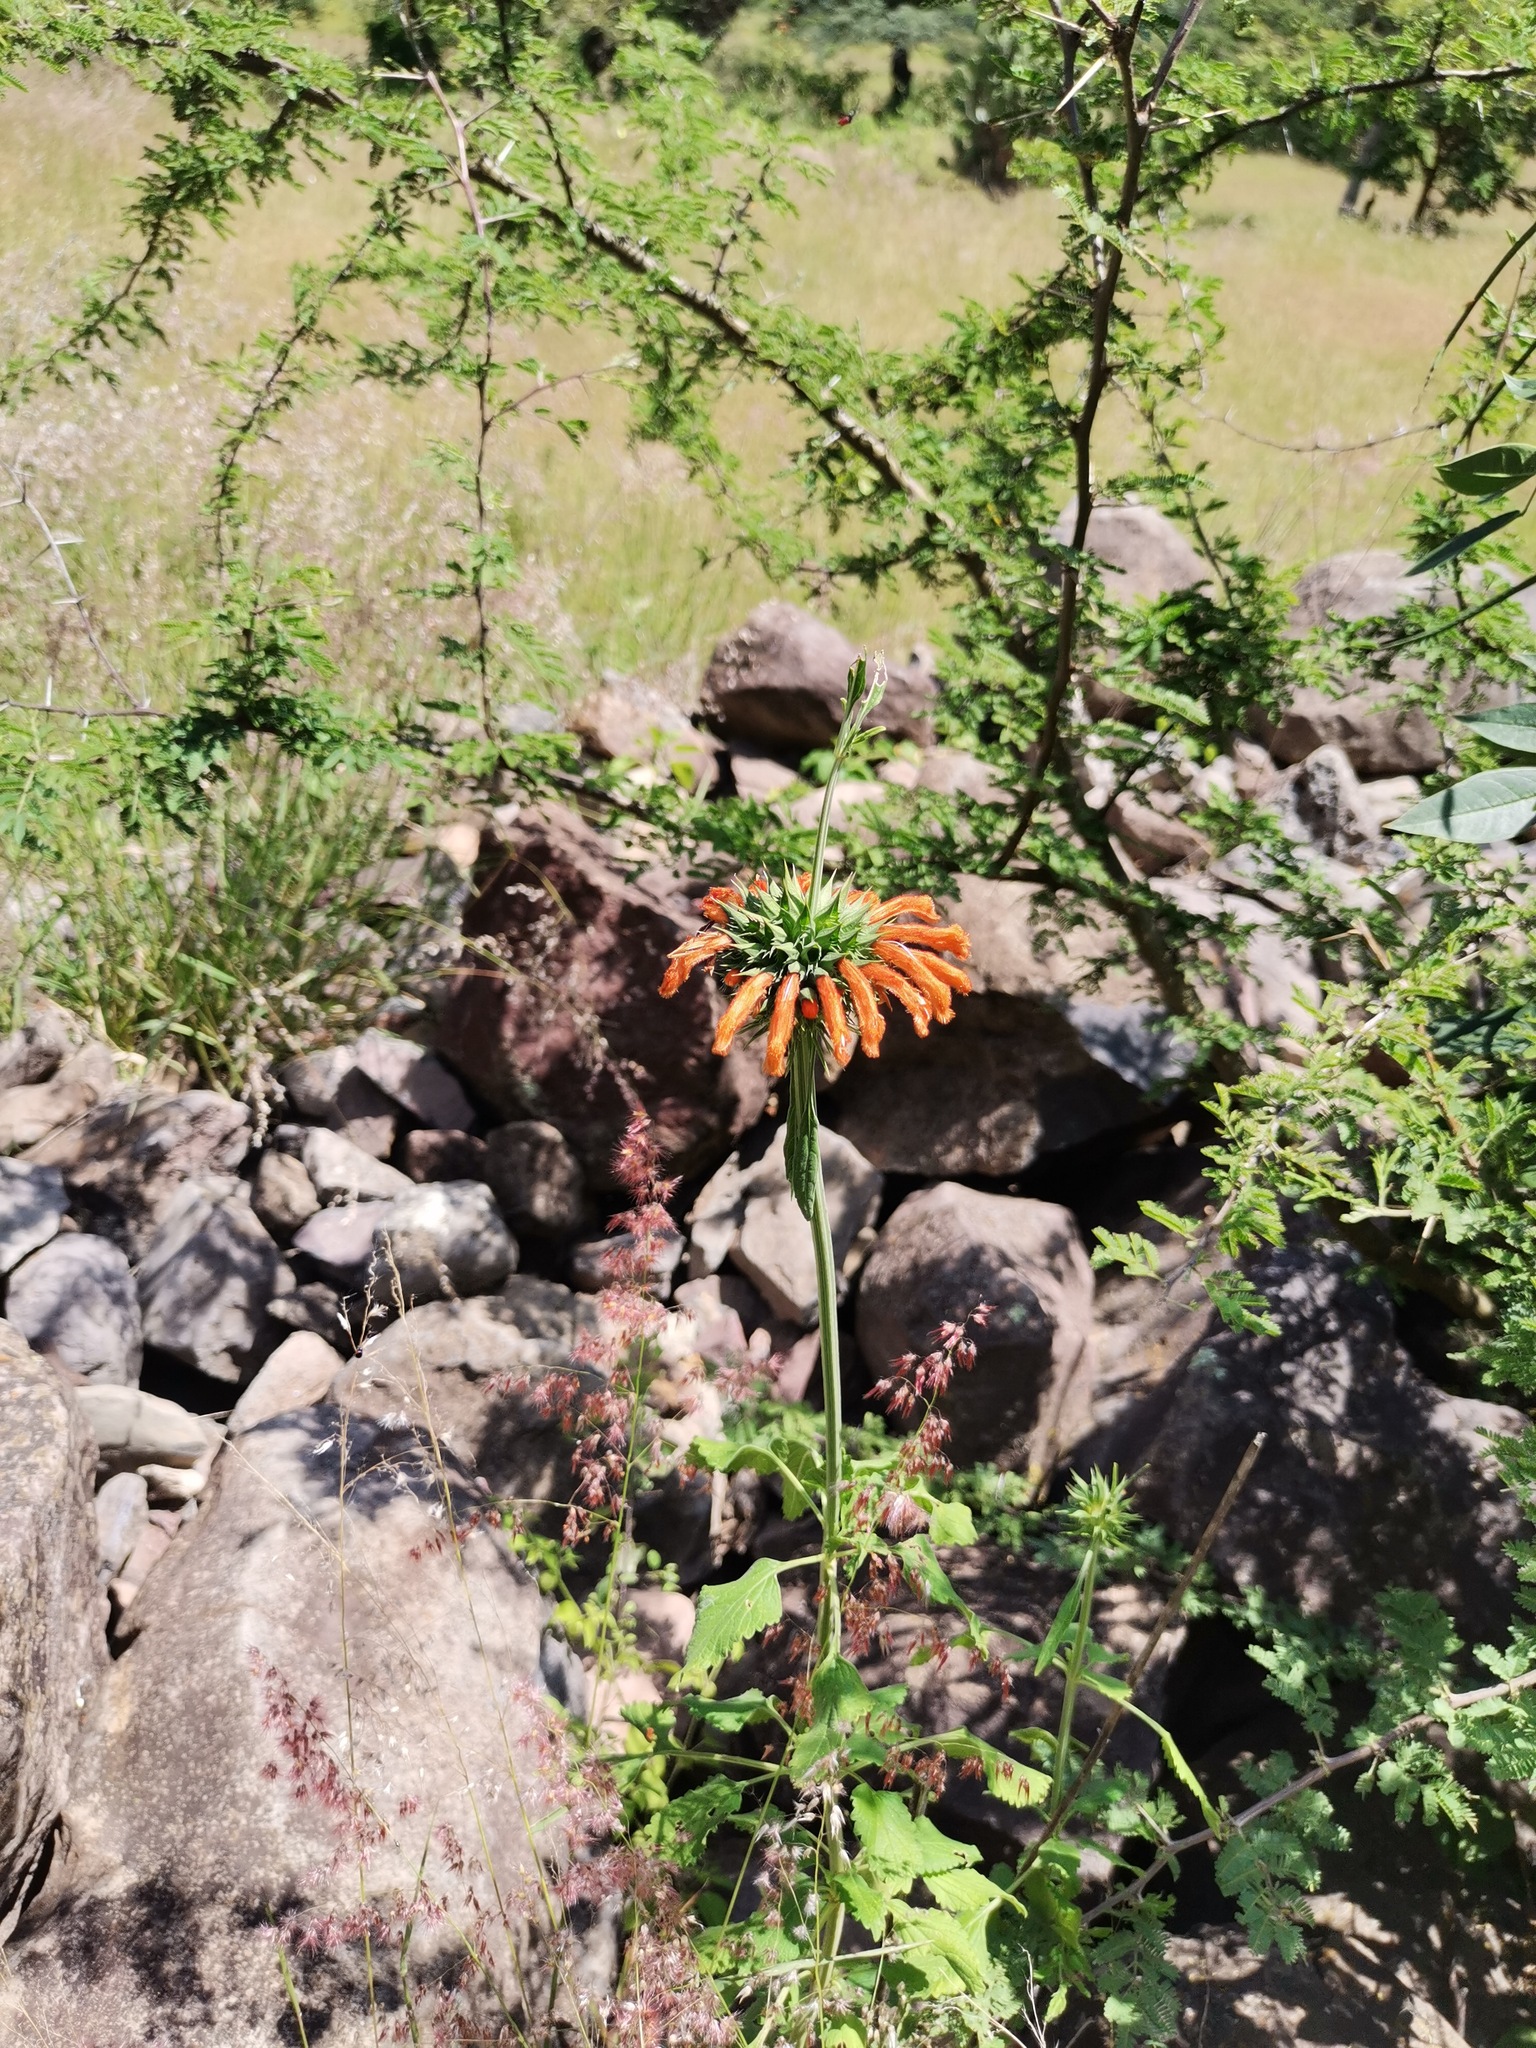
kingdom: Plantae
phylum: Tracheophyta
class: Magnoliopsida
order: Fabales
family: Fabaceae
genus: Vachellia
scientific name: Vachellia farnesiana
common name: Sweet acacia
